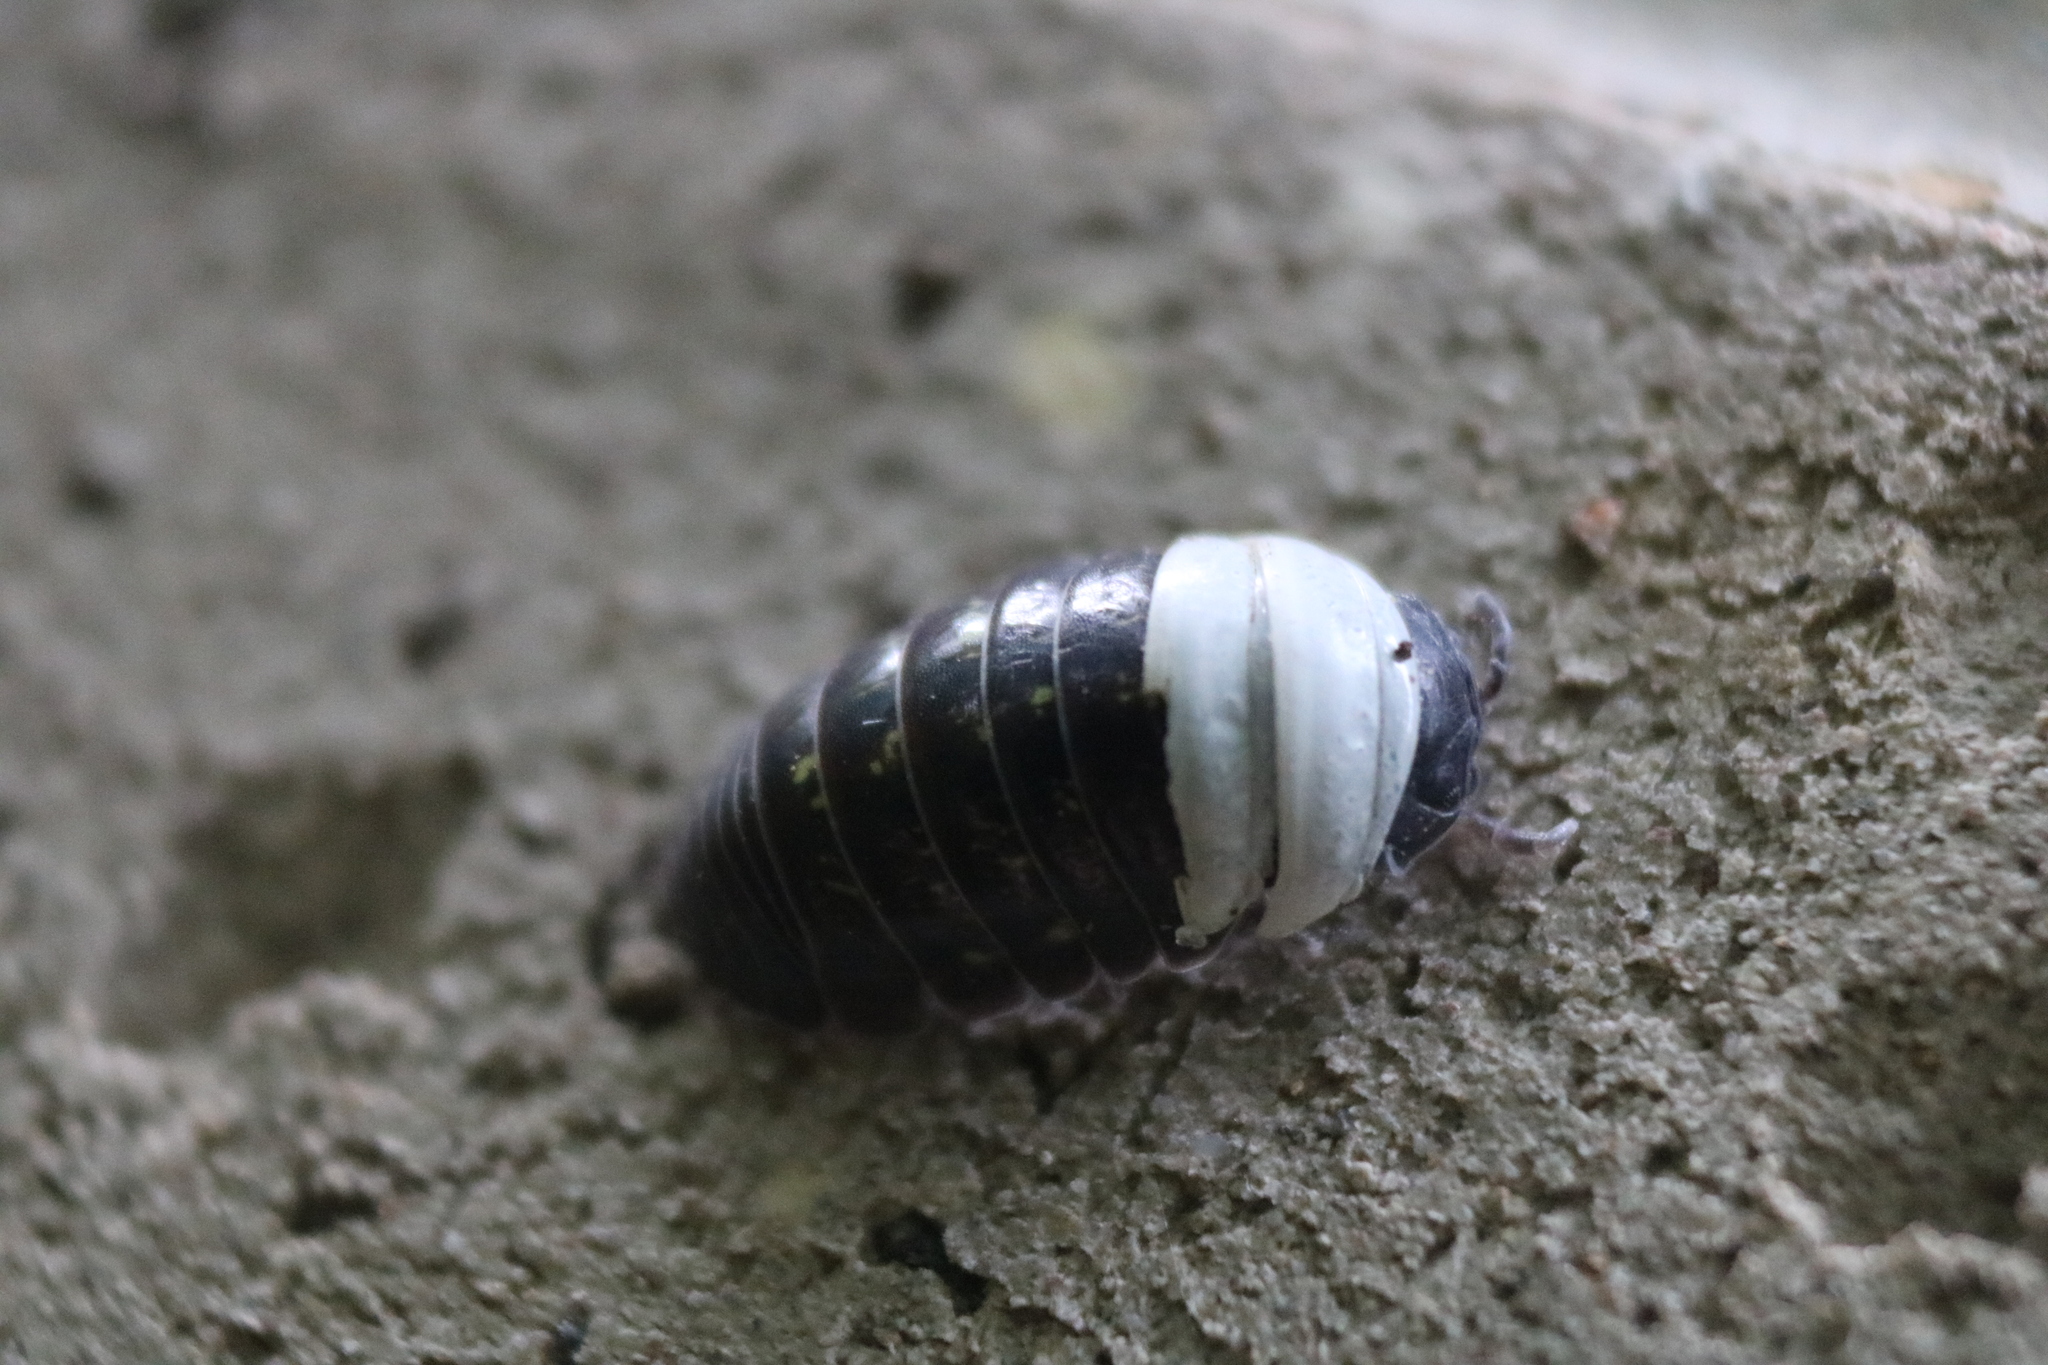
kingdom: Animalia
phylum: Arthropoda
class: Malacostraca
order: Isopoda
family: Armadillidiidae
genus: Armadillidium
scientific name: Armadillidium vulgare
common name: Common pill woodlouse
